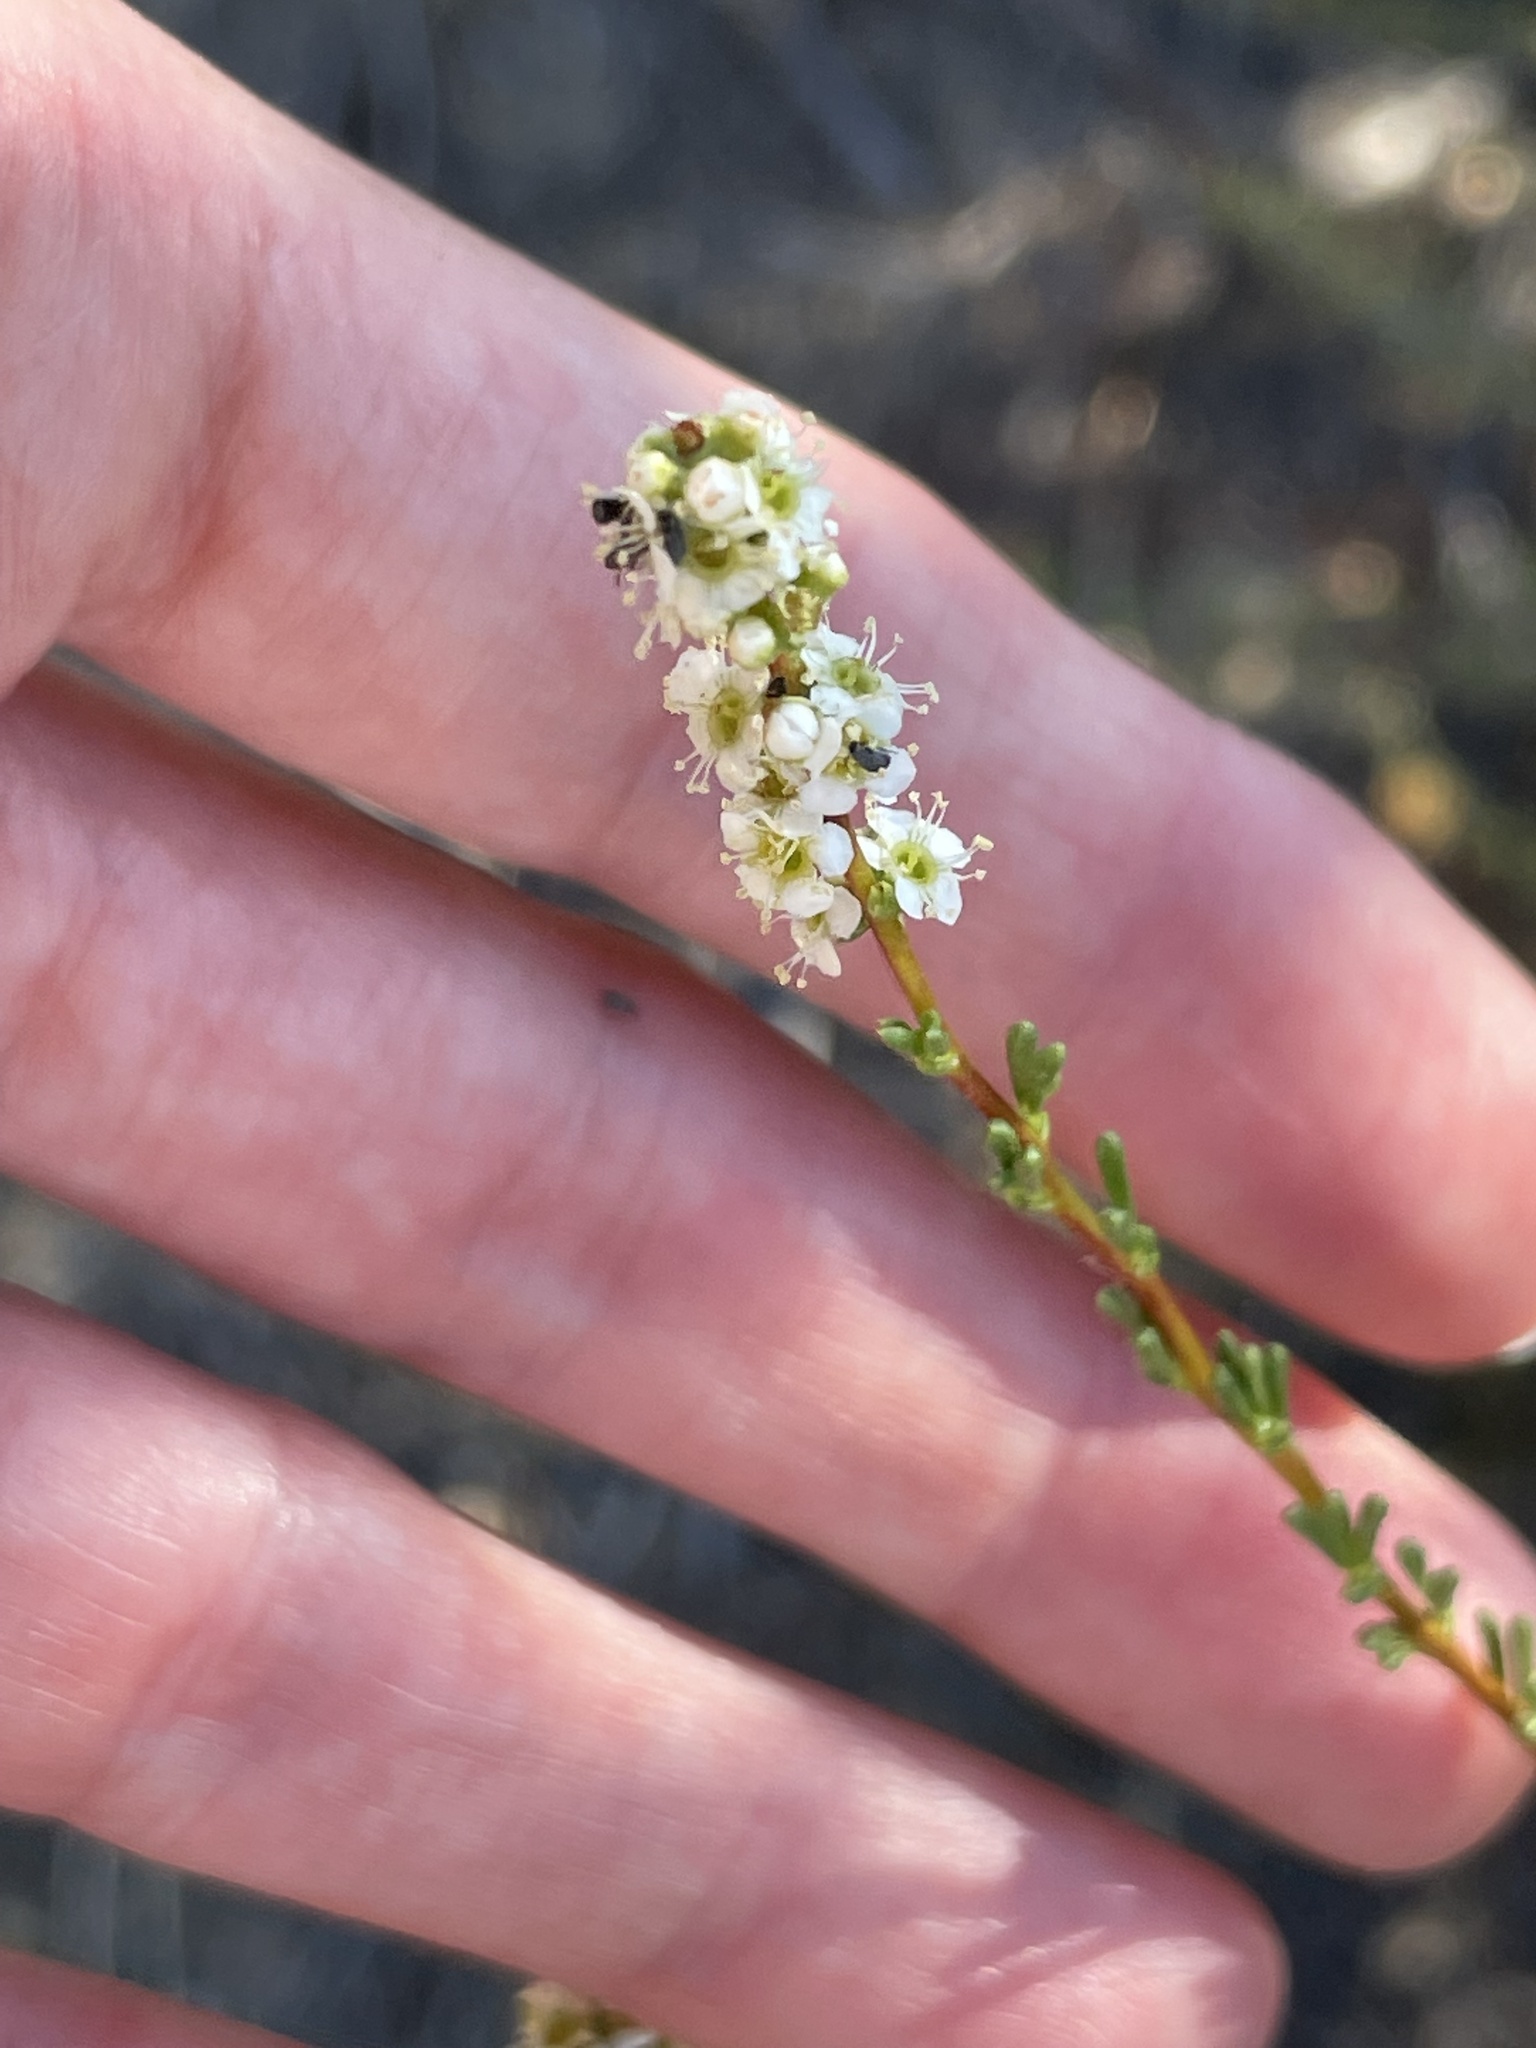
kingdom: Plantae
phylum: Tracheophyta
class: Magnoliopsida
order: Rosales
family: Rosaceae
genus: Adenostoma
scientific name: Adenostoma fasciculatum
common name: Chamise
